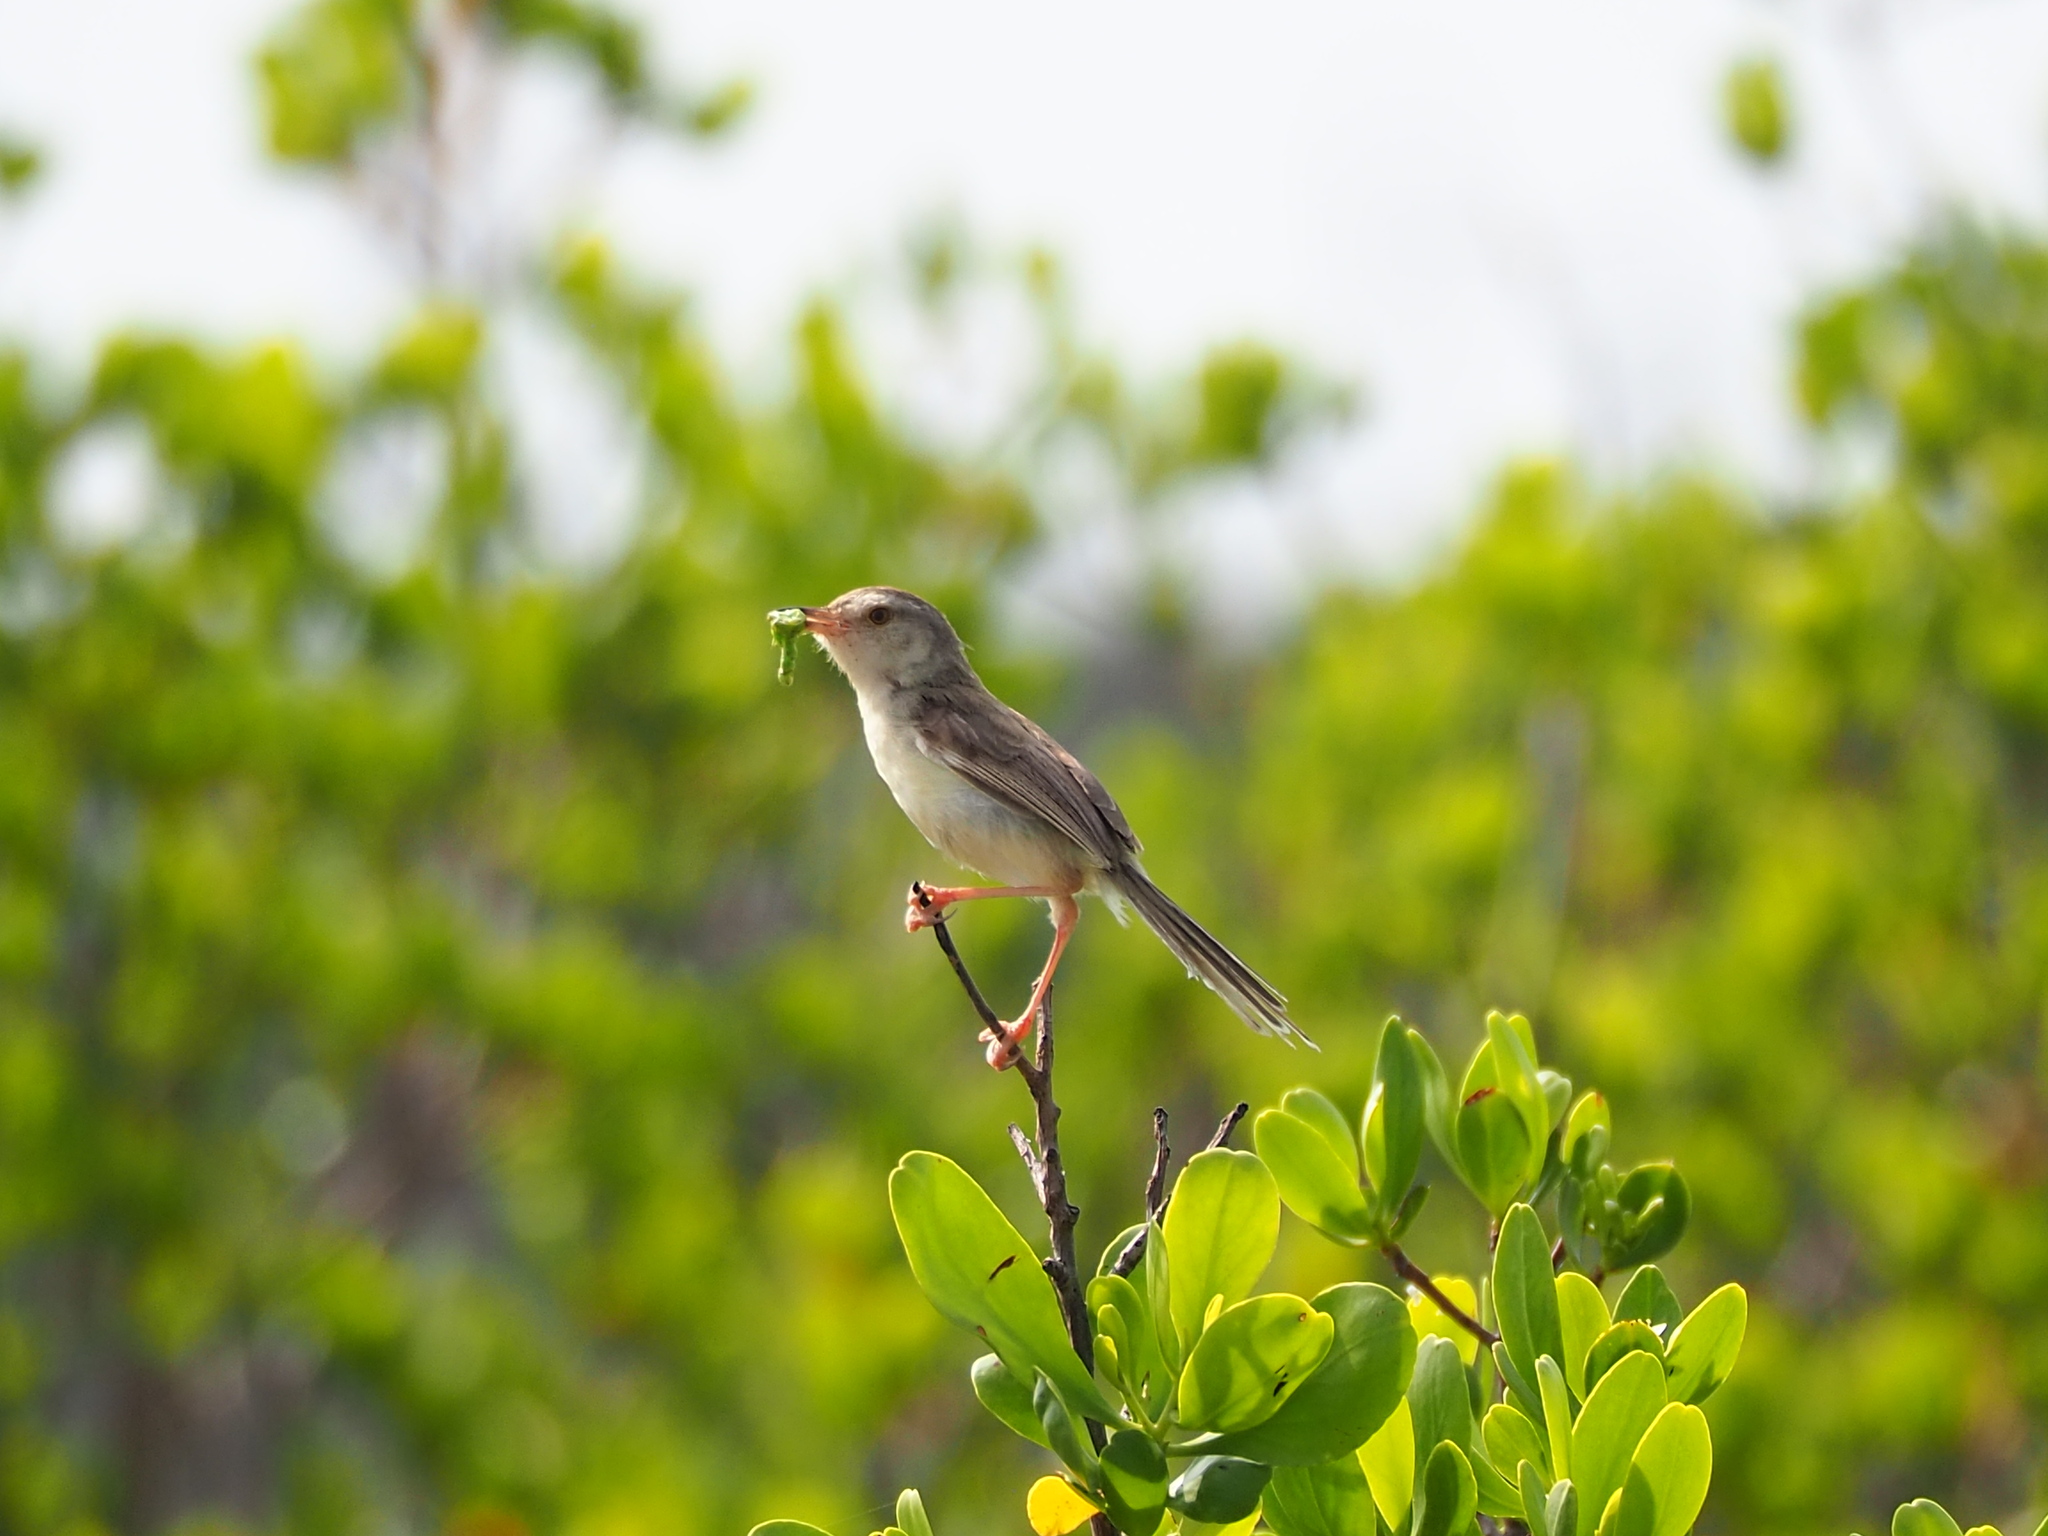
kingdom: Animalia
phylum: Chordata
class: Aves
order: Passeriformes
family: Cisticolidae
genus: Prinia
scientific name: Prinia inornata
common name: Plain prinia
